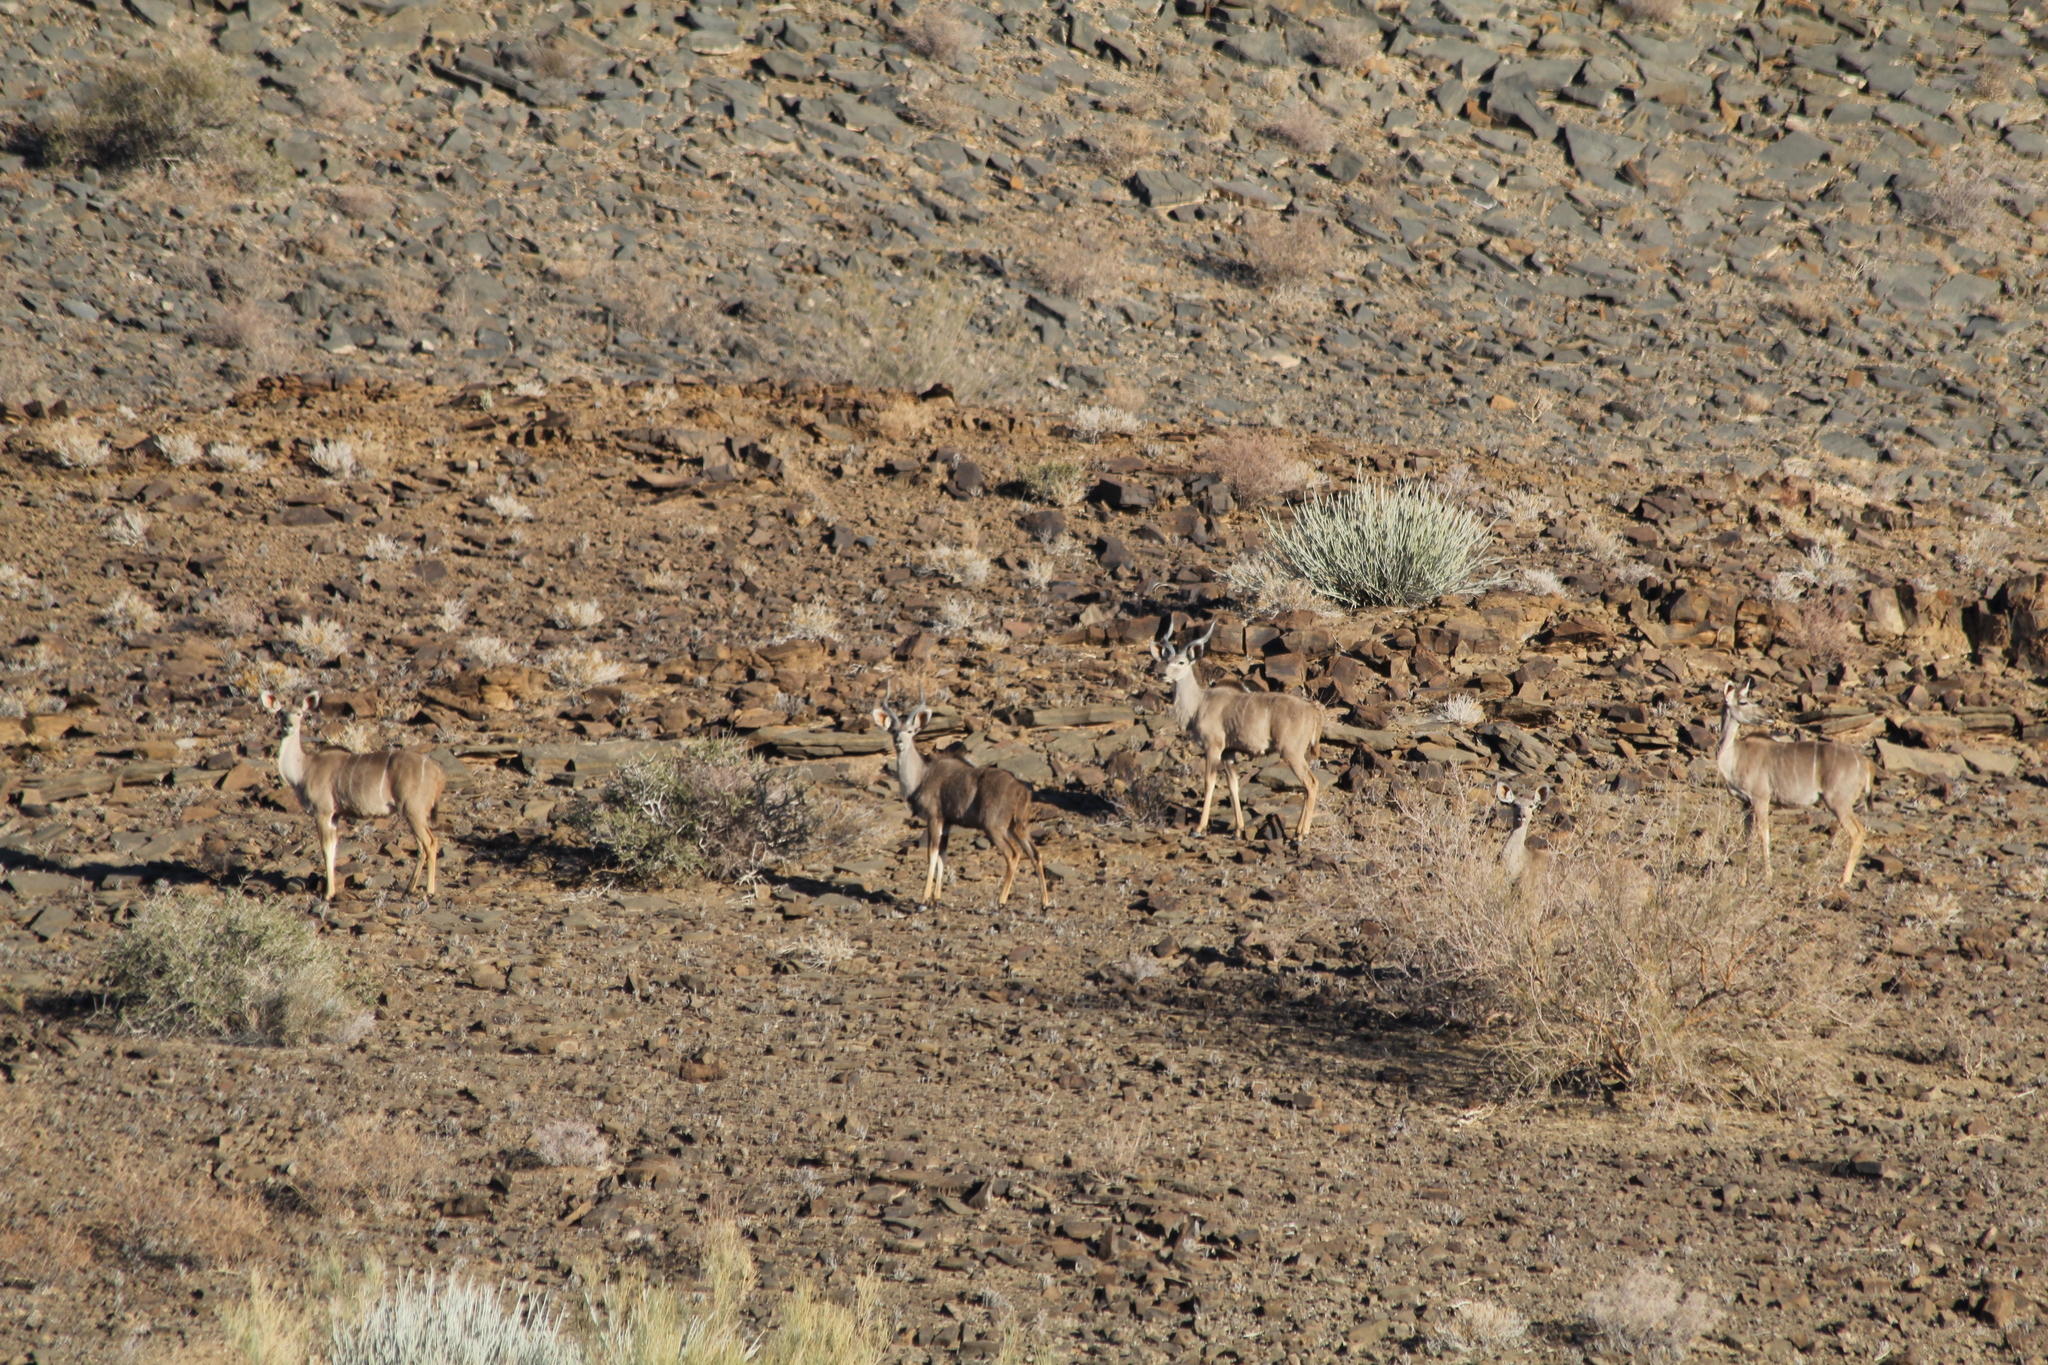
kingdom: Animalia
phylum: Chordata
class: Mammalia
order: Artiodactyla
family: Bovidae
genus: Tragelaphus
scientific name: Tragelaphus strepsiceros
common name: Greater kudu
